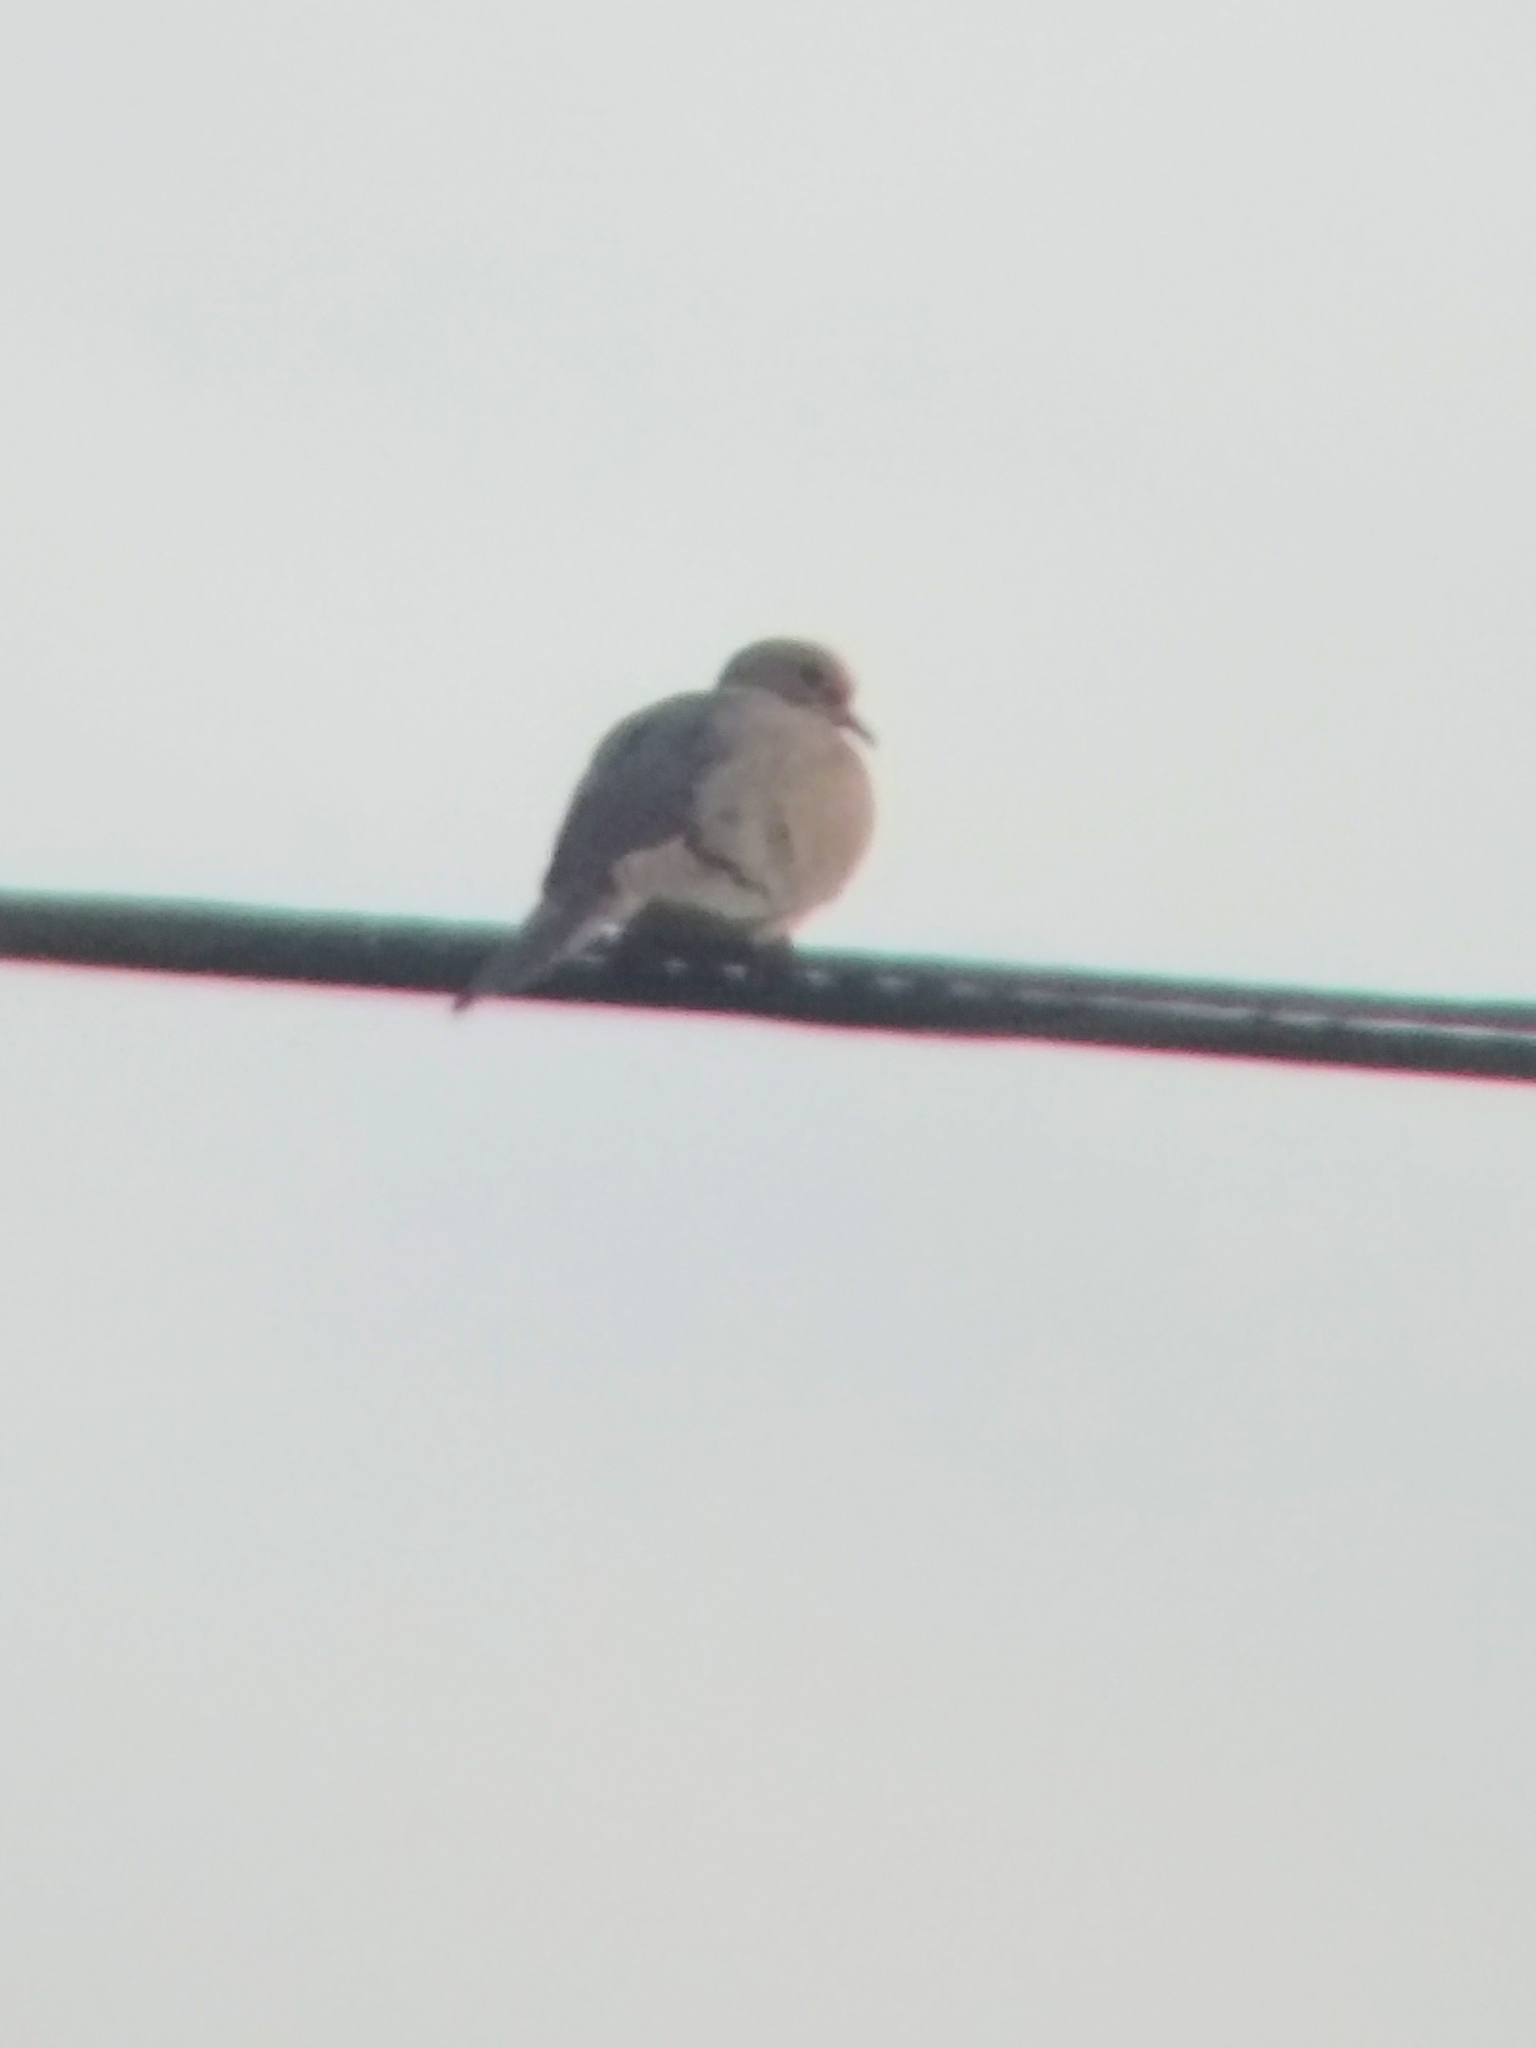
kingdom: Animalia
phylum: Chordata
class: Aves
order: Columbiformes
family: Columbidae
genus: Zenaida
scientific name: Zenaida macroura
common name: Mourning dove
